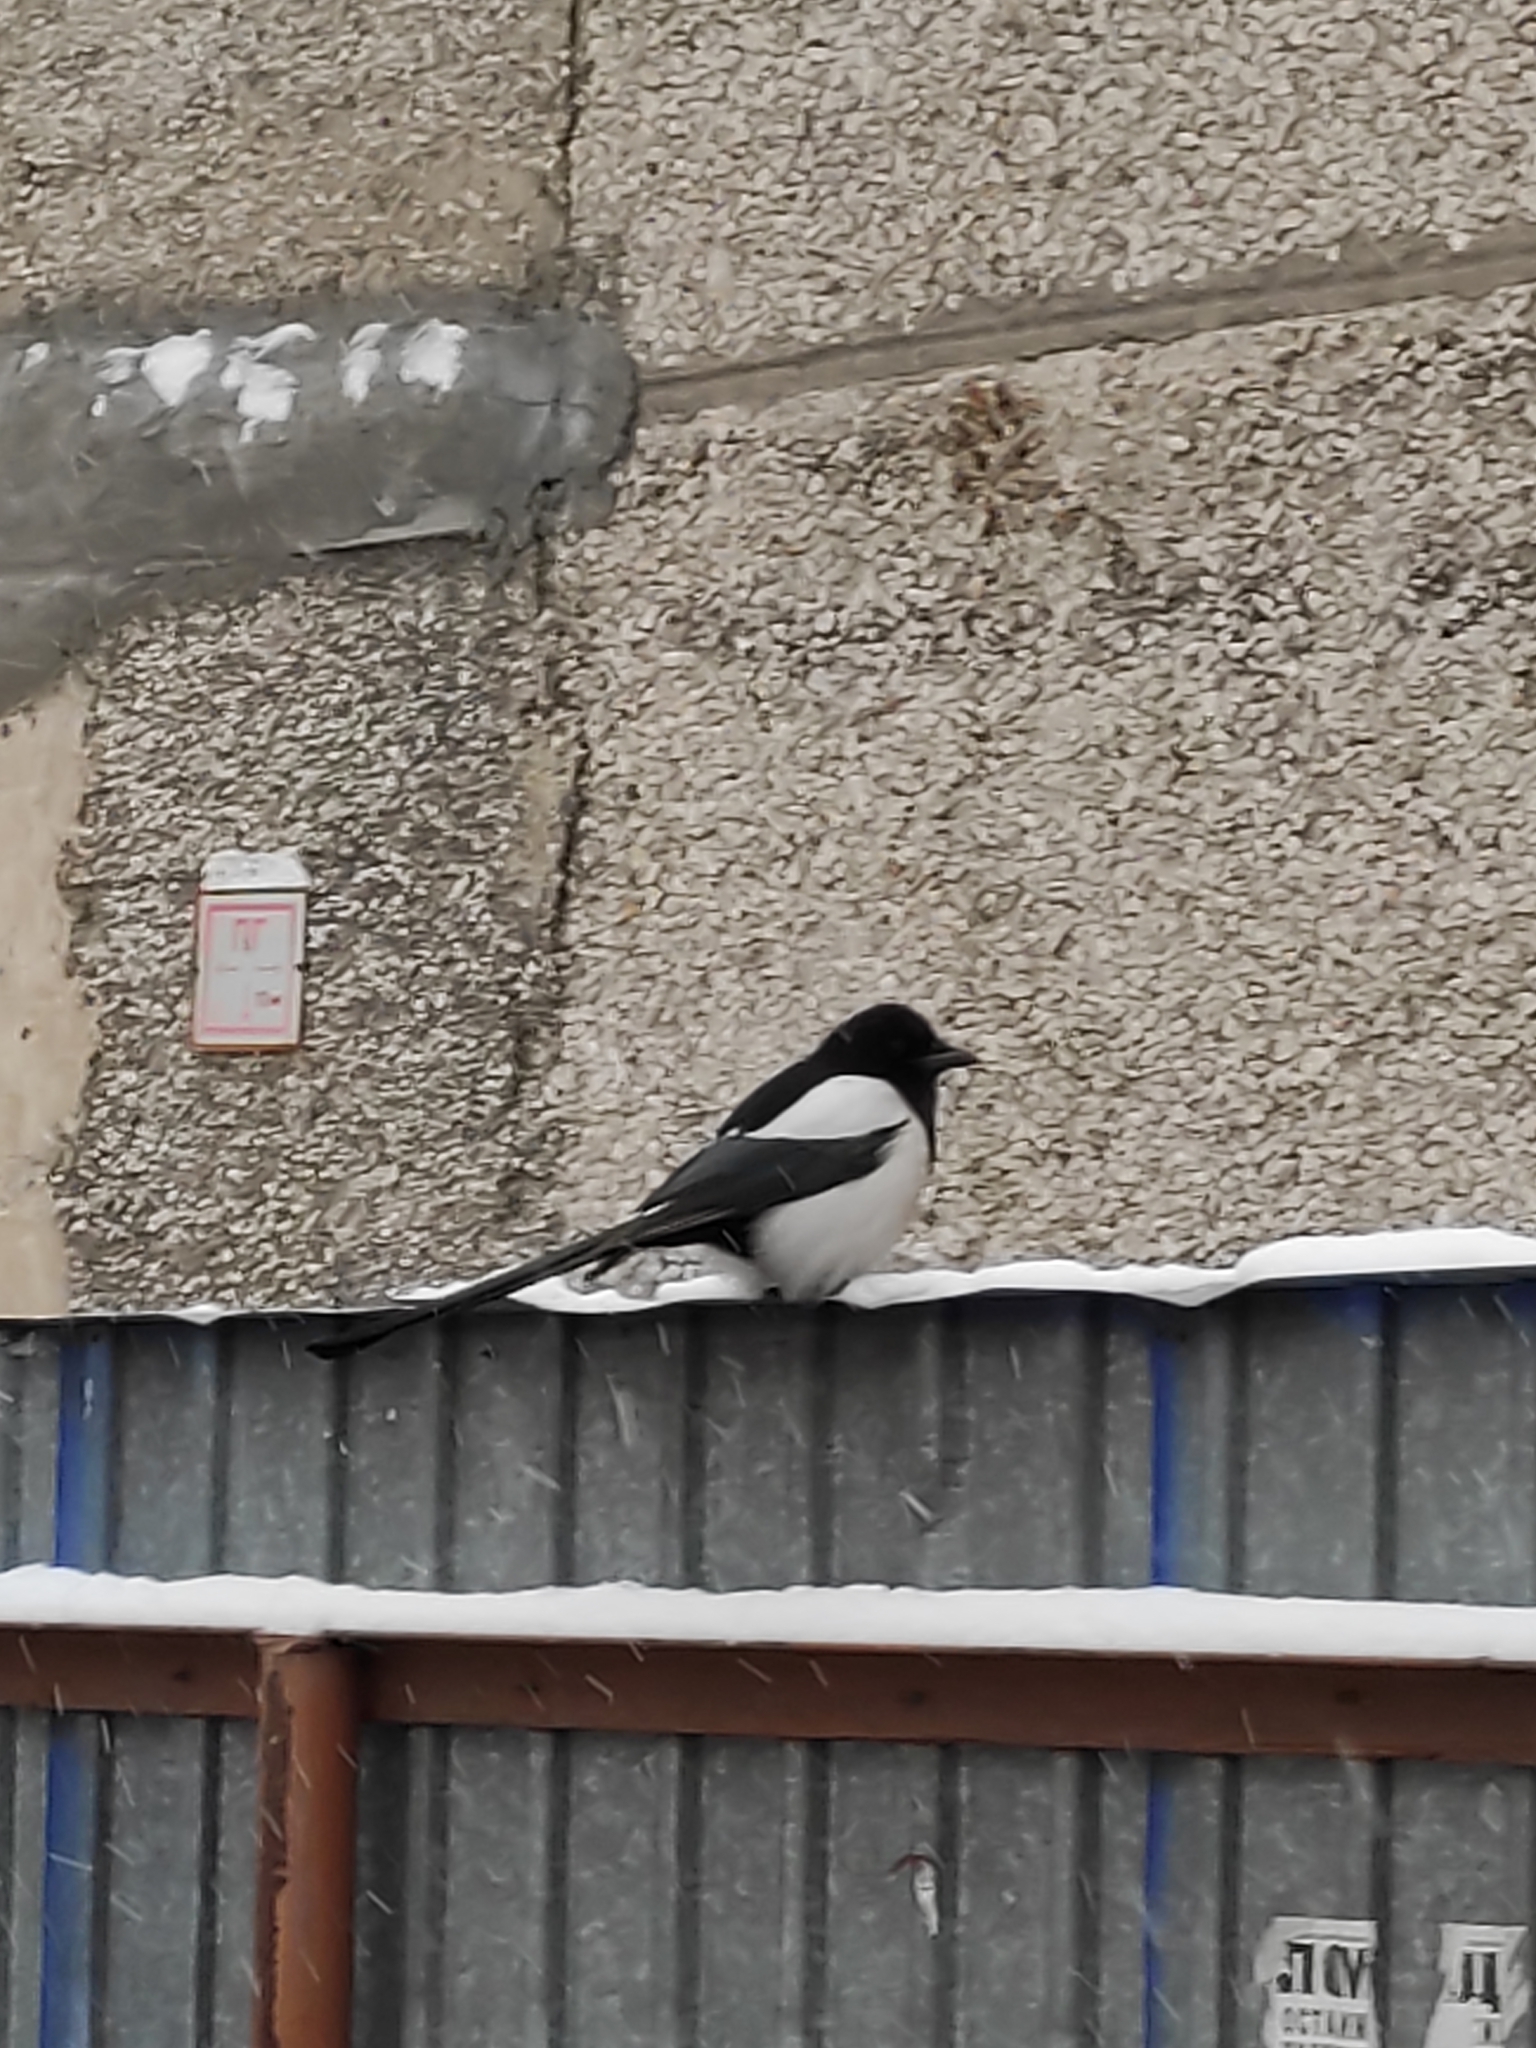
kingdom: Animalia
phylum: Chordata
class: Aves
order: Passeriformes
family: Corvidae
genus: Pica
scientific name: Pica pica
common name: Eurasian magpie
